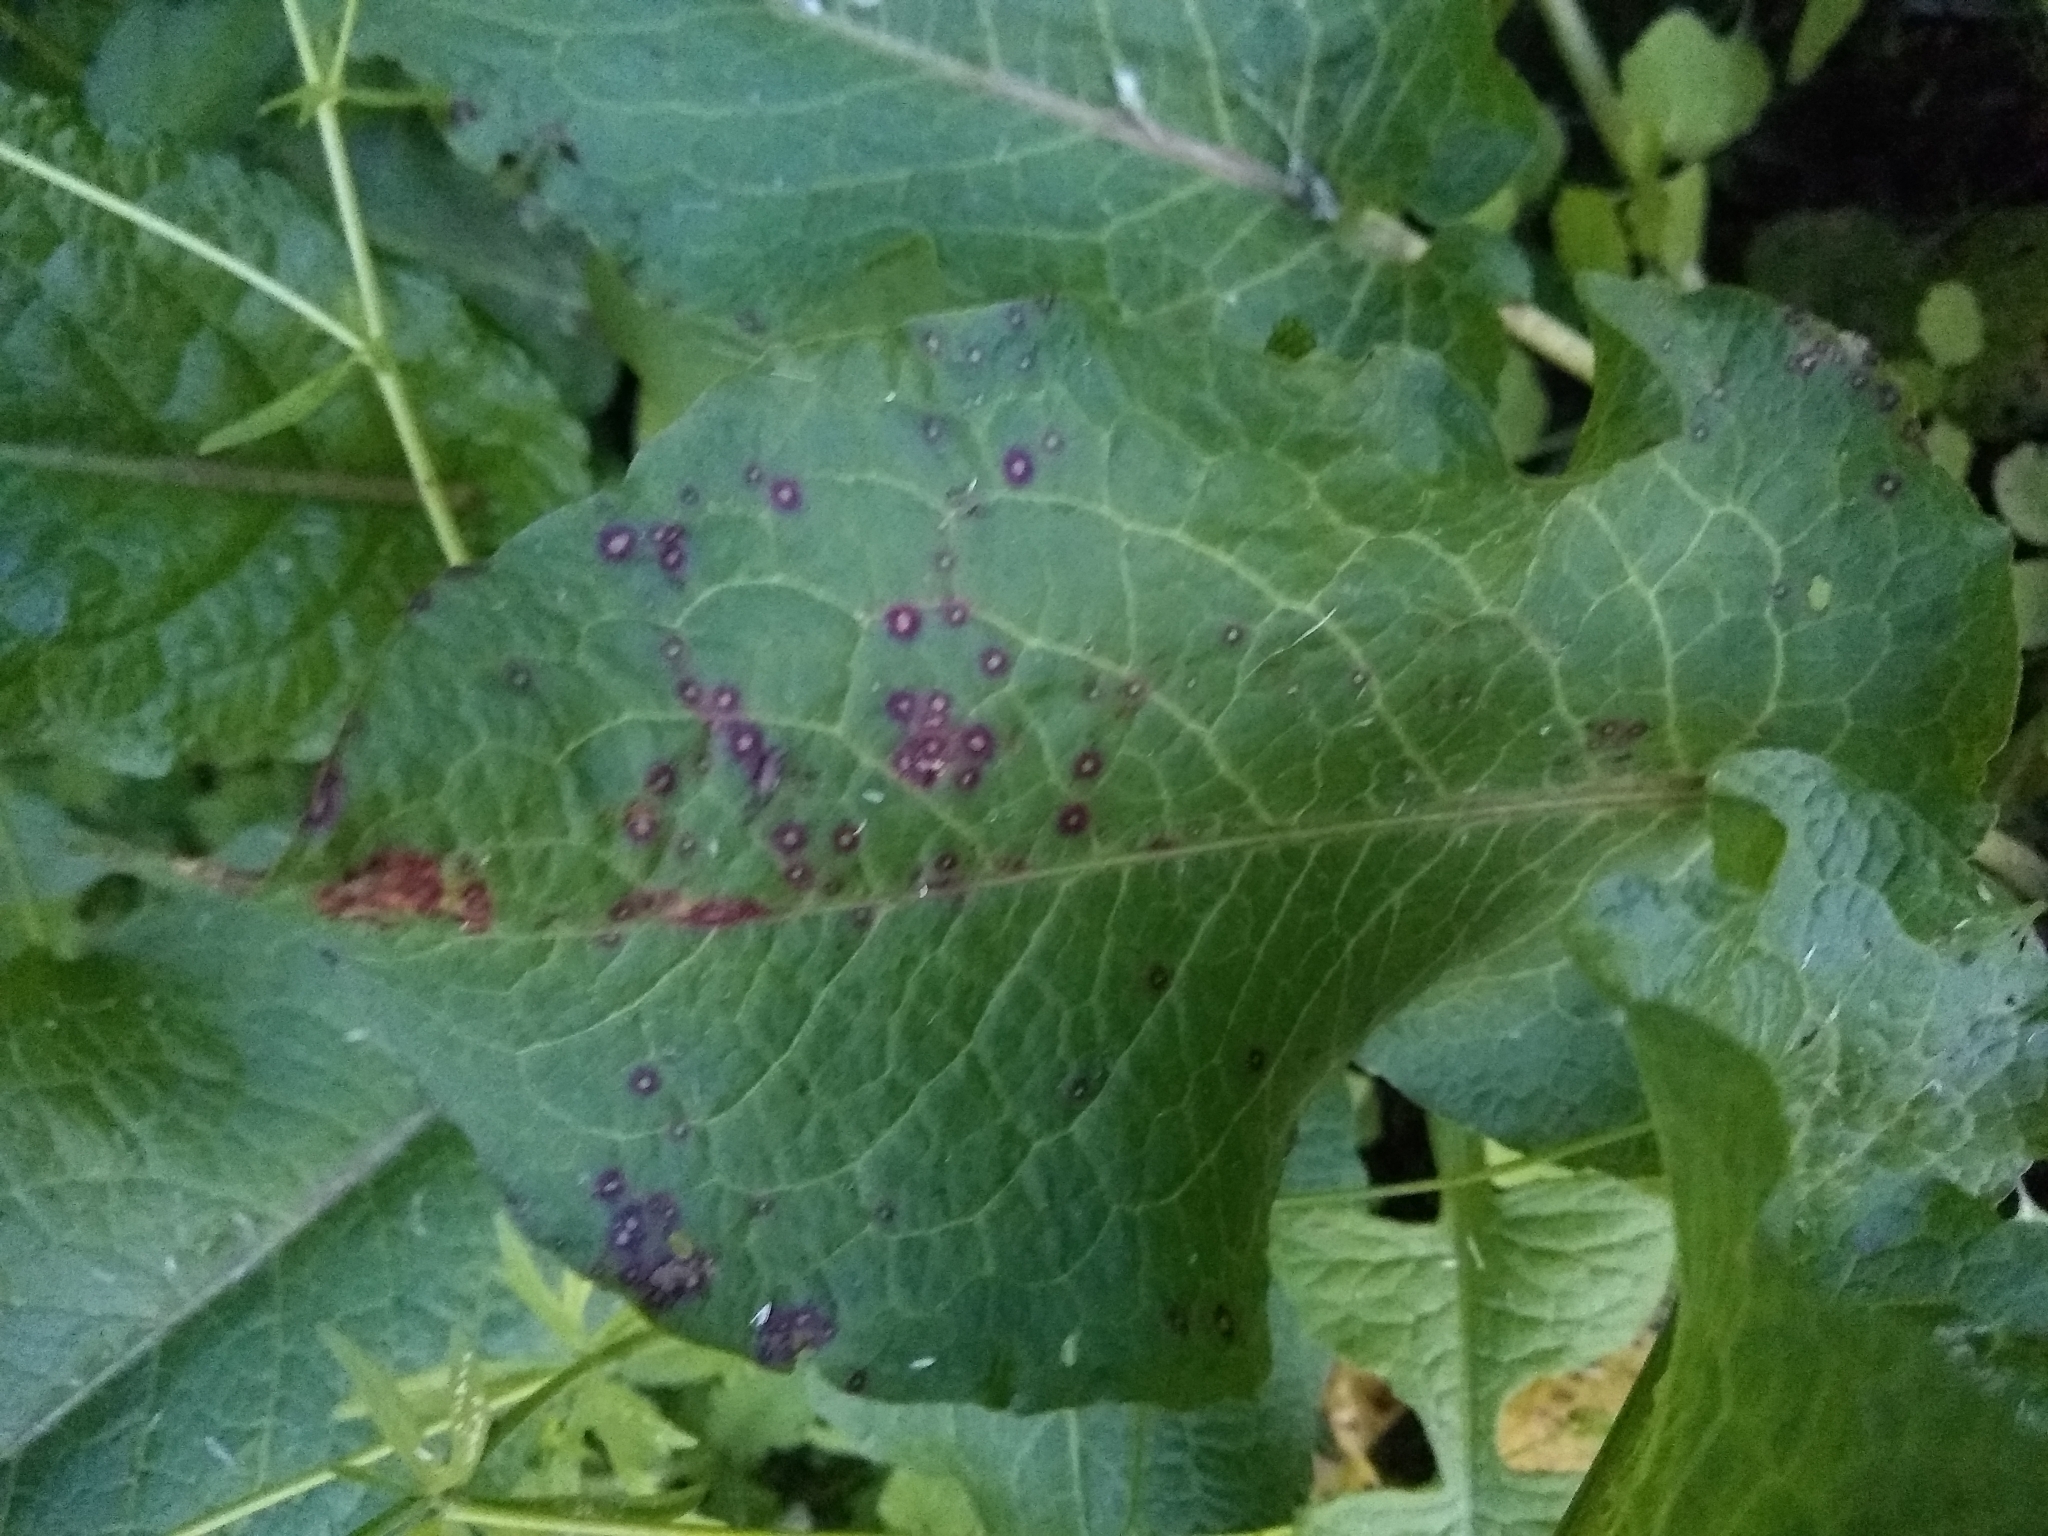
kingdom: Fungi
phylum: Ascomycota
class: Dothideomycetes
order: Mycosphaerellales
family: Mycosphaerellaceae
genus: Ramularia
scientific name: Ramularia rubella
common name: Red dock spot
